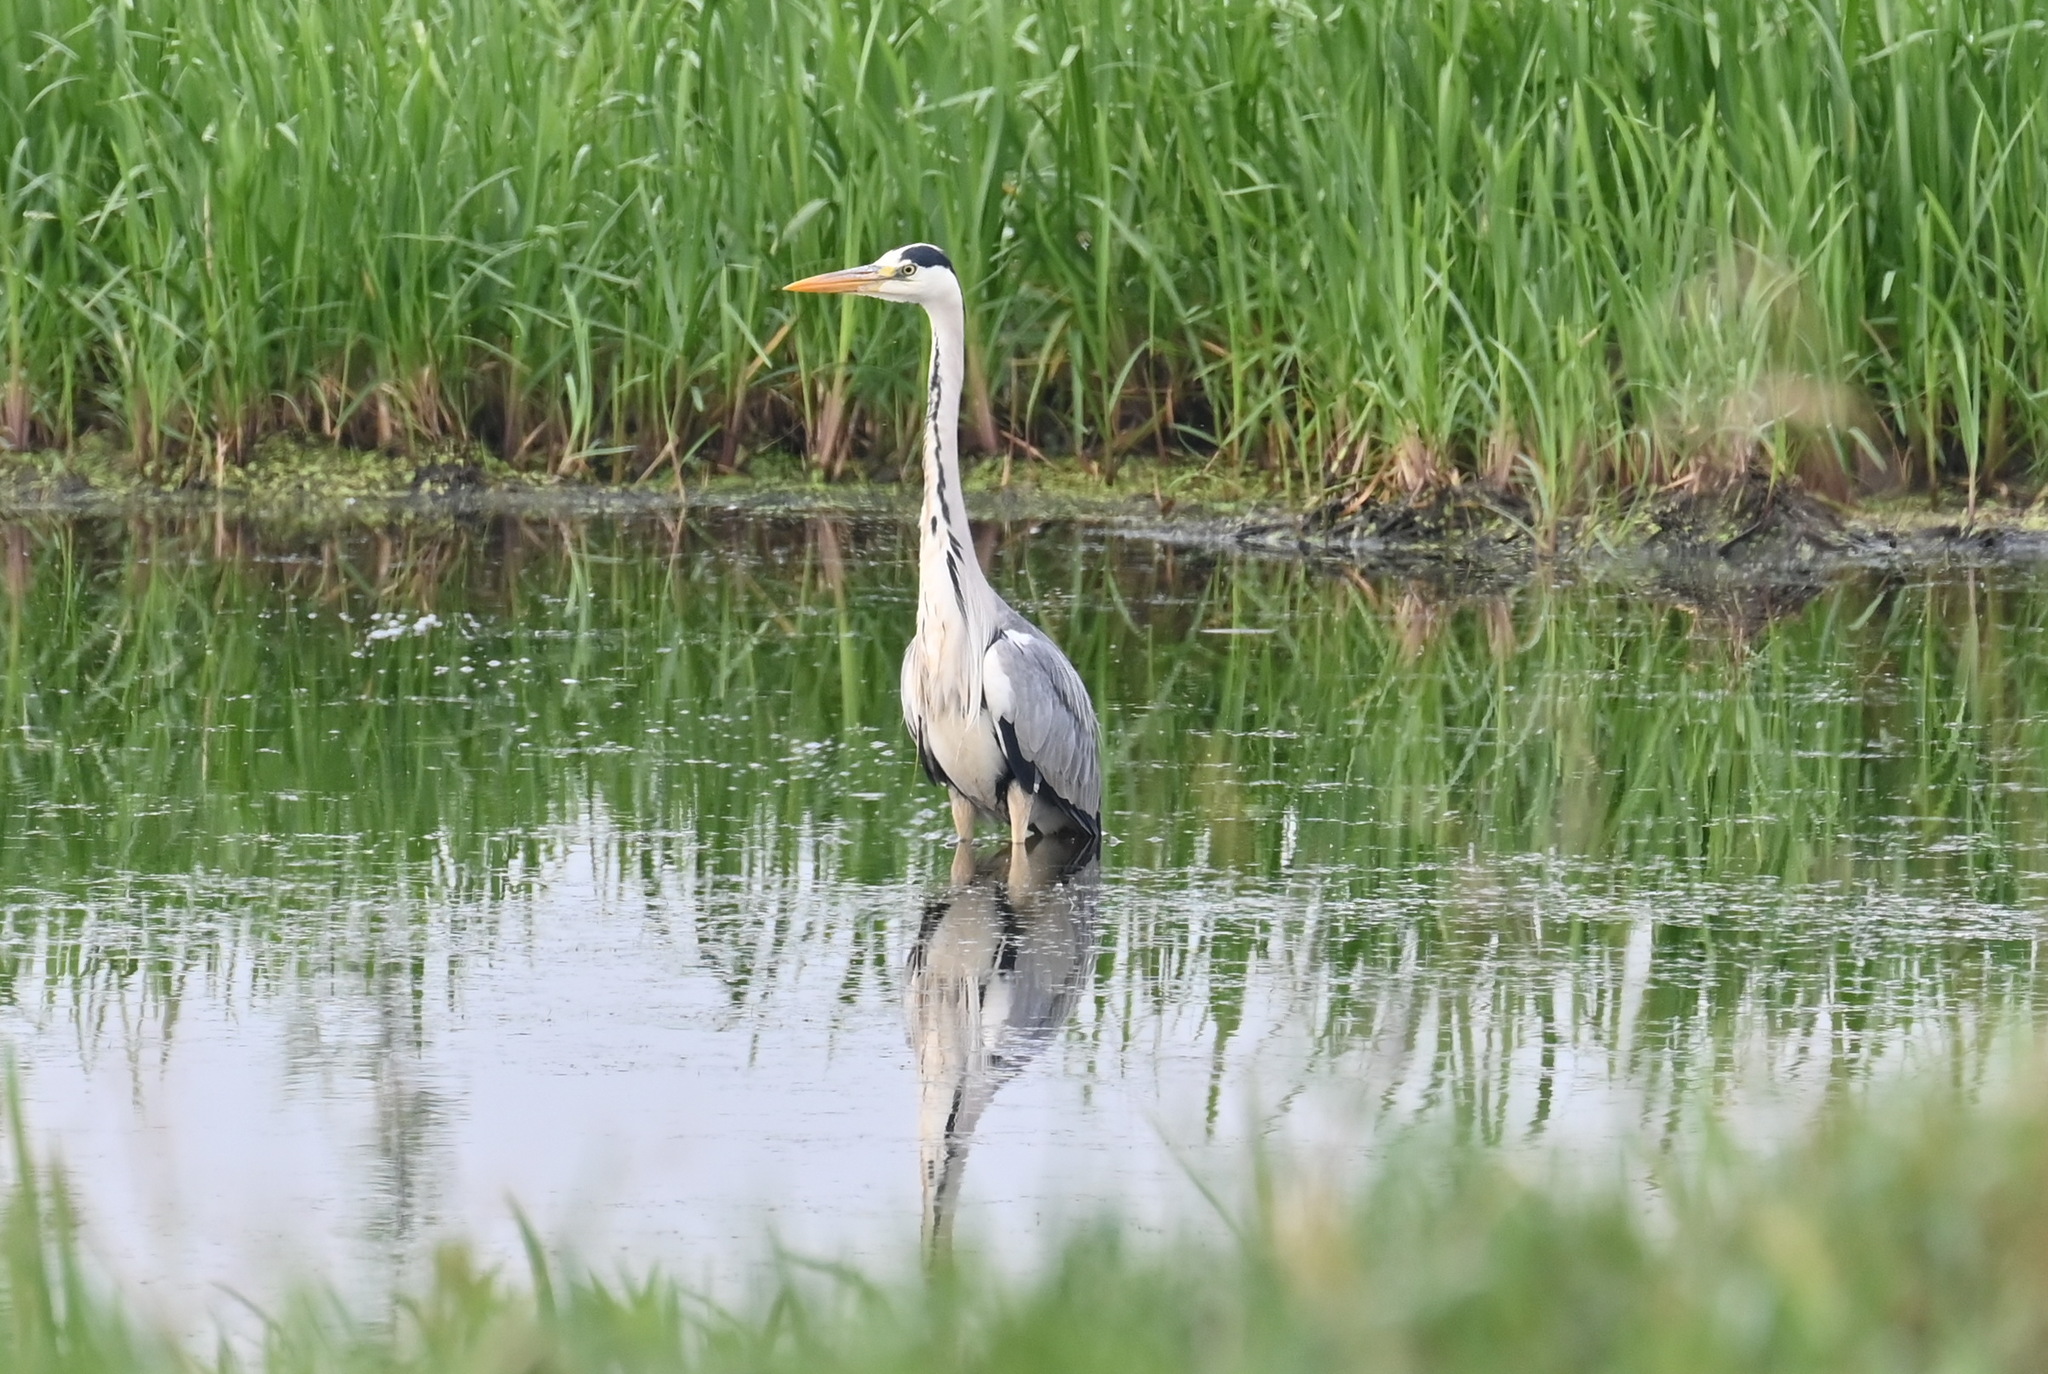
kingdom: Animalia
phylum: Chordata
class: Aves
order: Pelecaniformes
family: Ardeidae
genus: Ardea
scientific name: Ardea cinerea
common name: Grey heron
